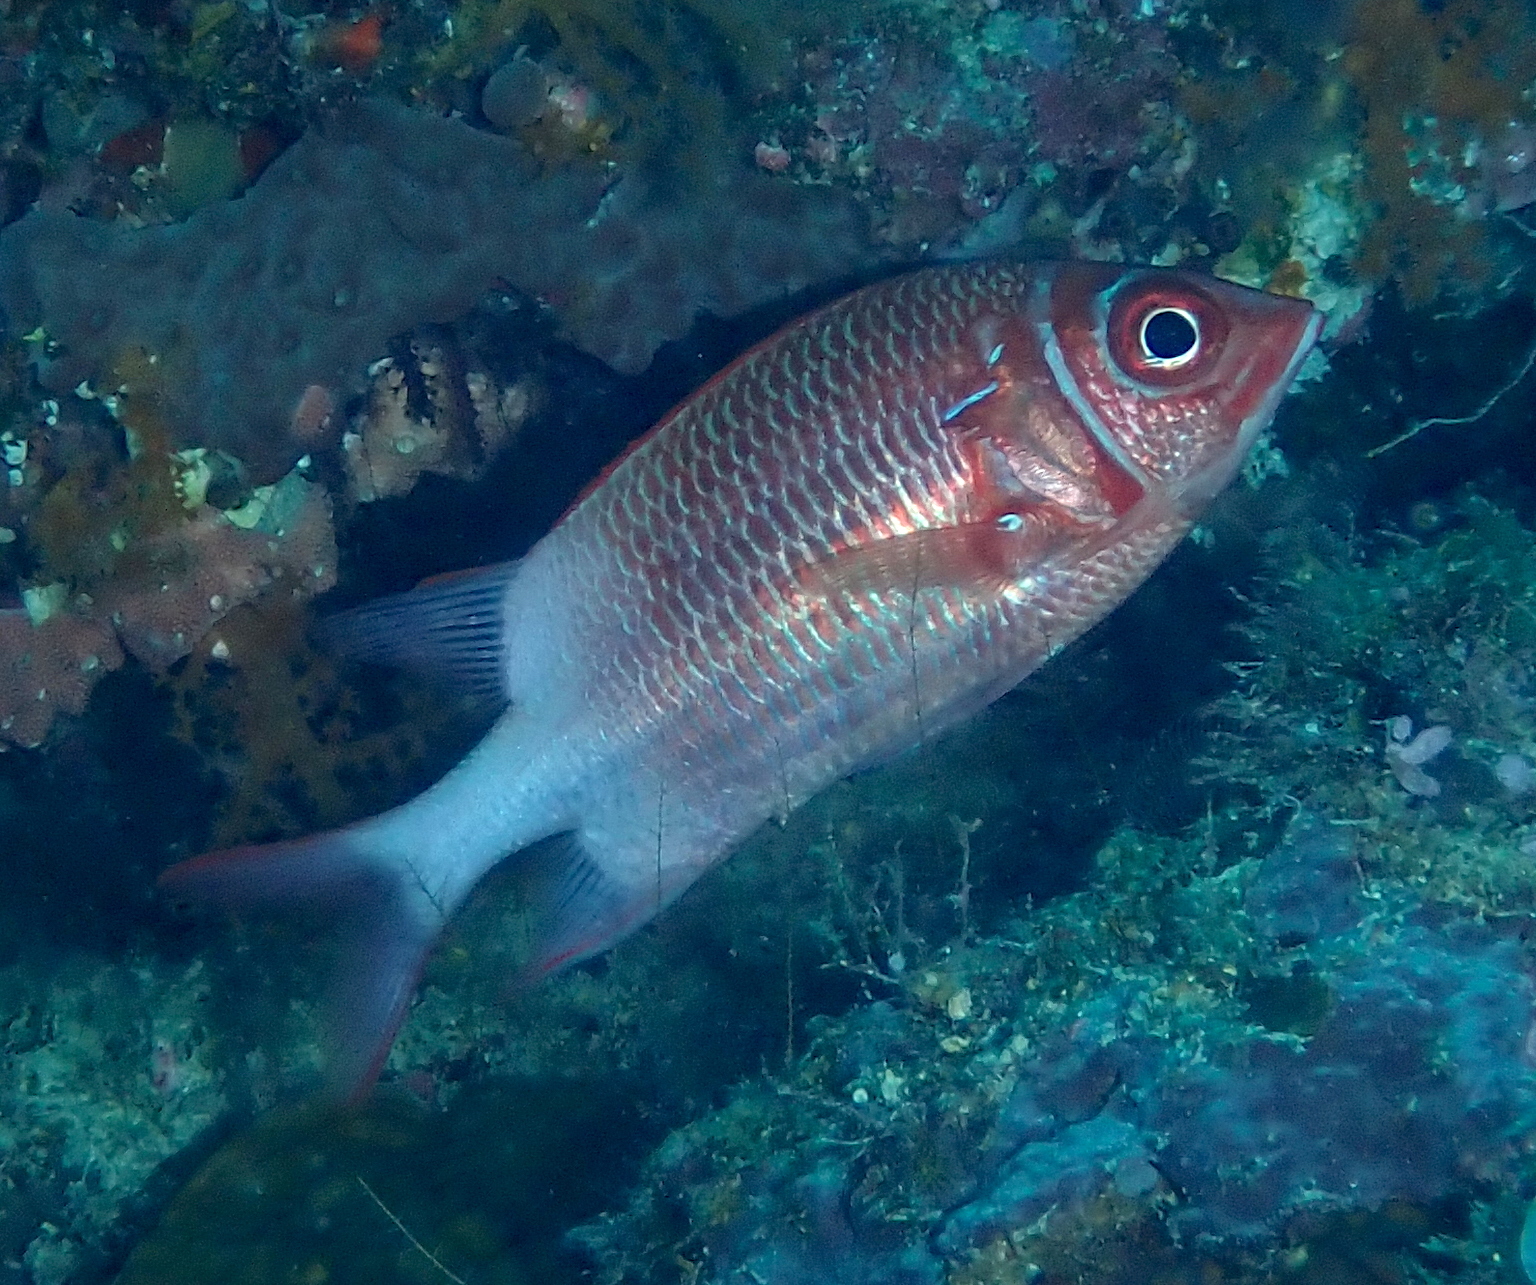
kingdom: Animalia
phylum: Chordata
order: Beryciformes
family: Holocentridae
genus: Sargocentron
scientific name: Sargocentron caudimaculatum
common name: Fanfin soldier
